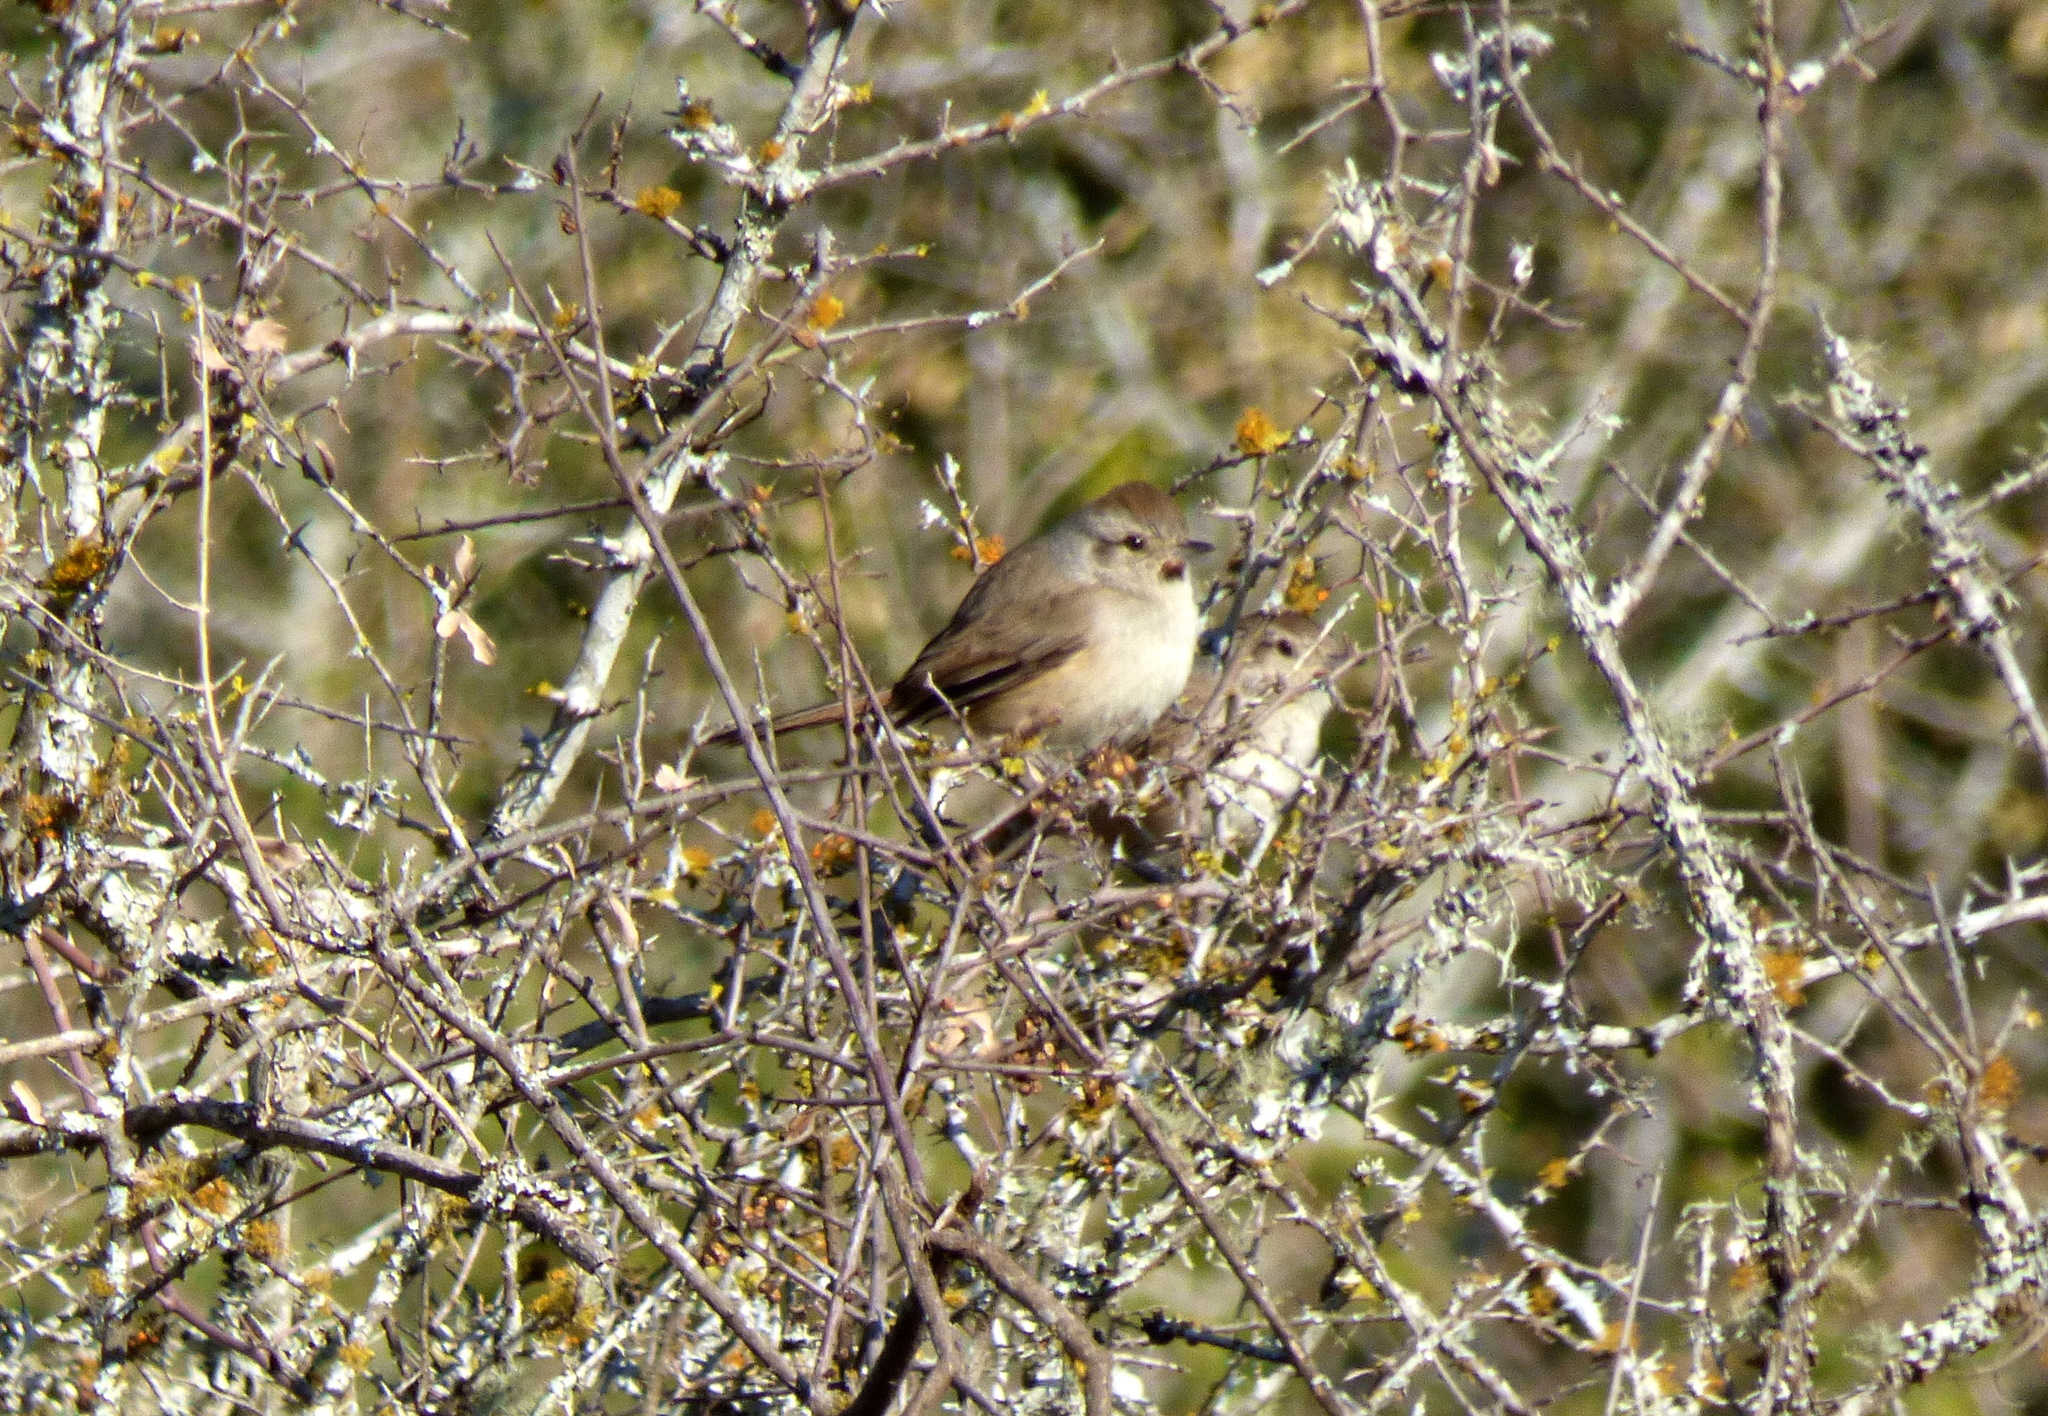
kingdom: Animalia
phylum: Chordata
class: Aves
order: Passeriformes
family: Furnariidae
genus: Asthenes
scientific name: Asthenes baeri
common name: Short-billed canastero
